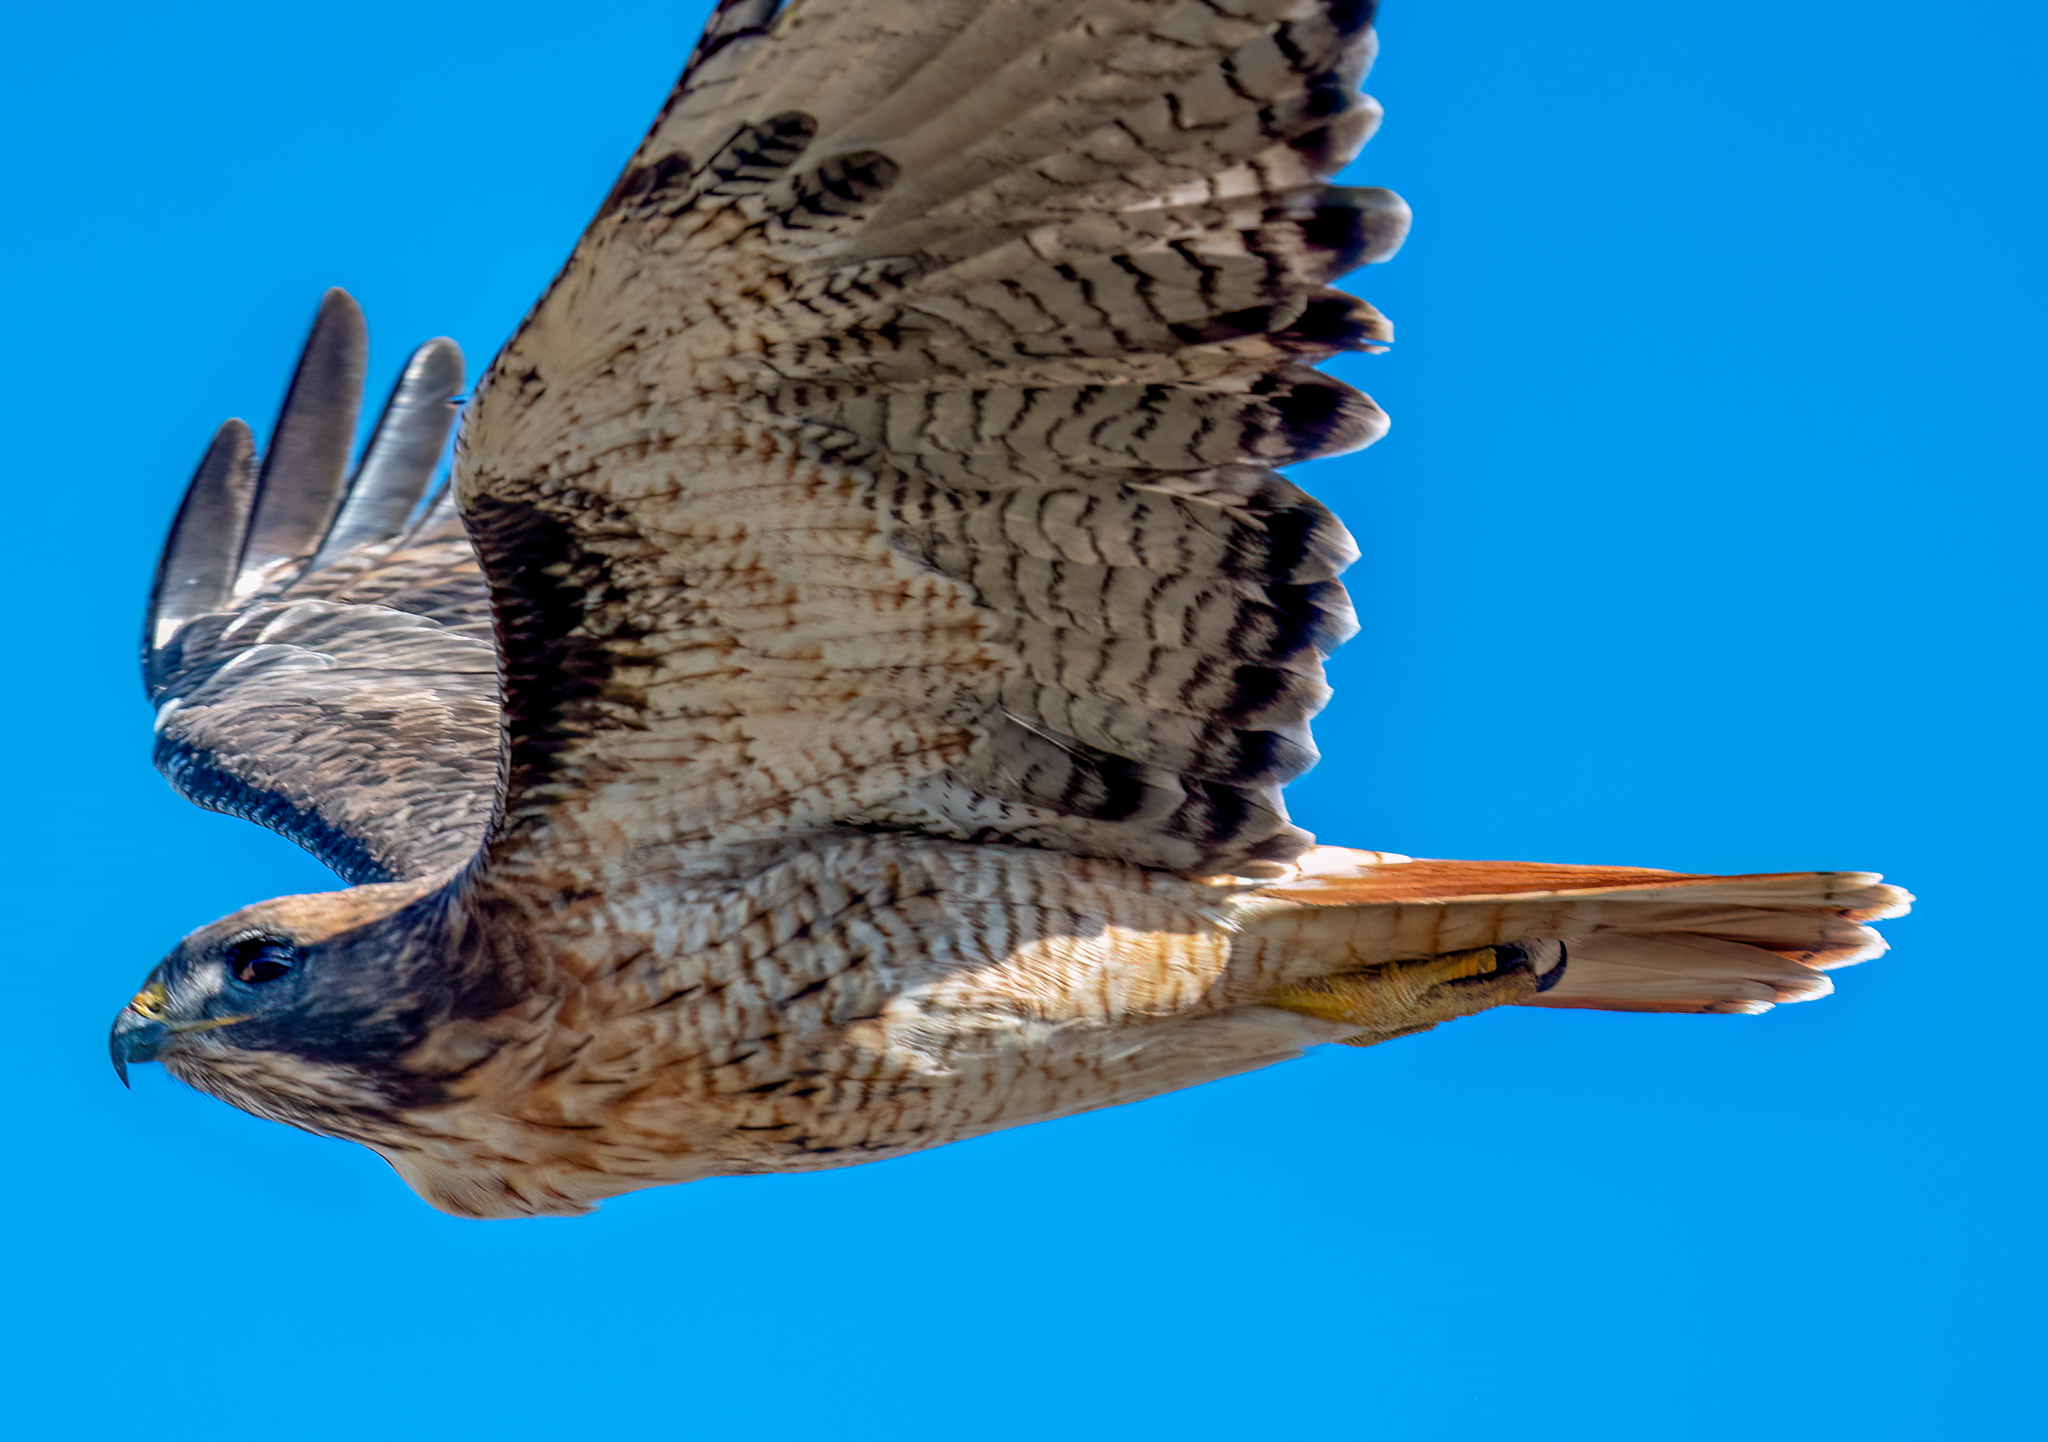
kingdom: Animalia
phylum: Chordata
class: Aves
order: Accipitriformes
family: Accipitridae
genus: Buteo
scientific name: Buteo jamaicensis
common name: Red-tailed hawk
